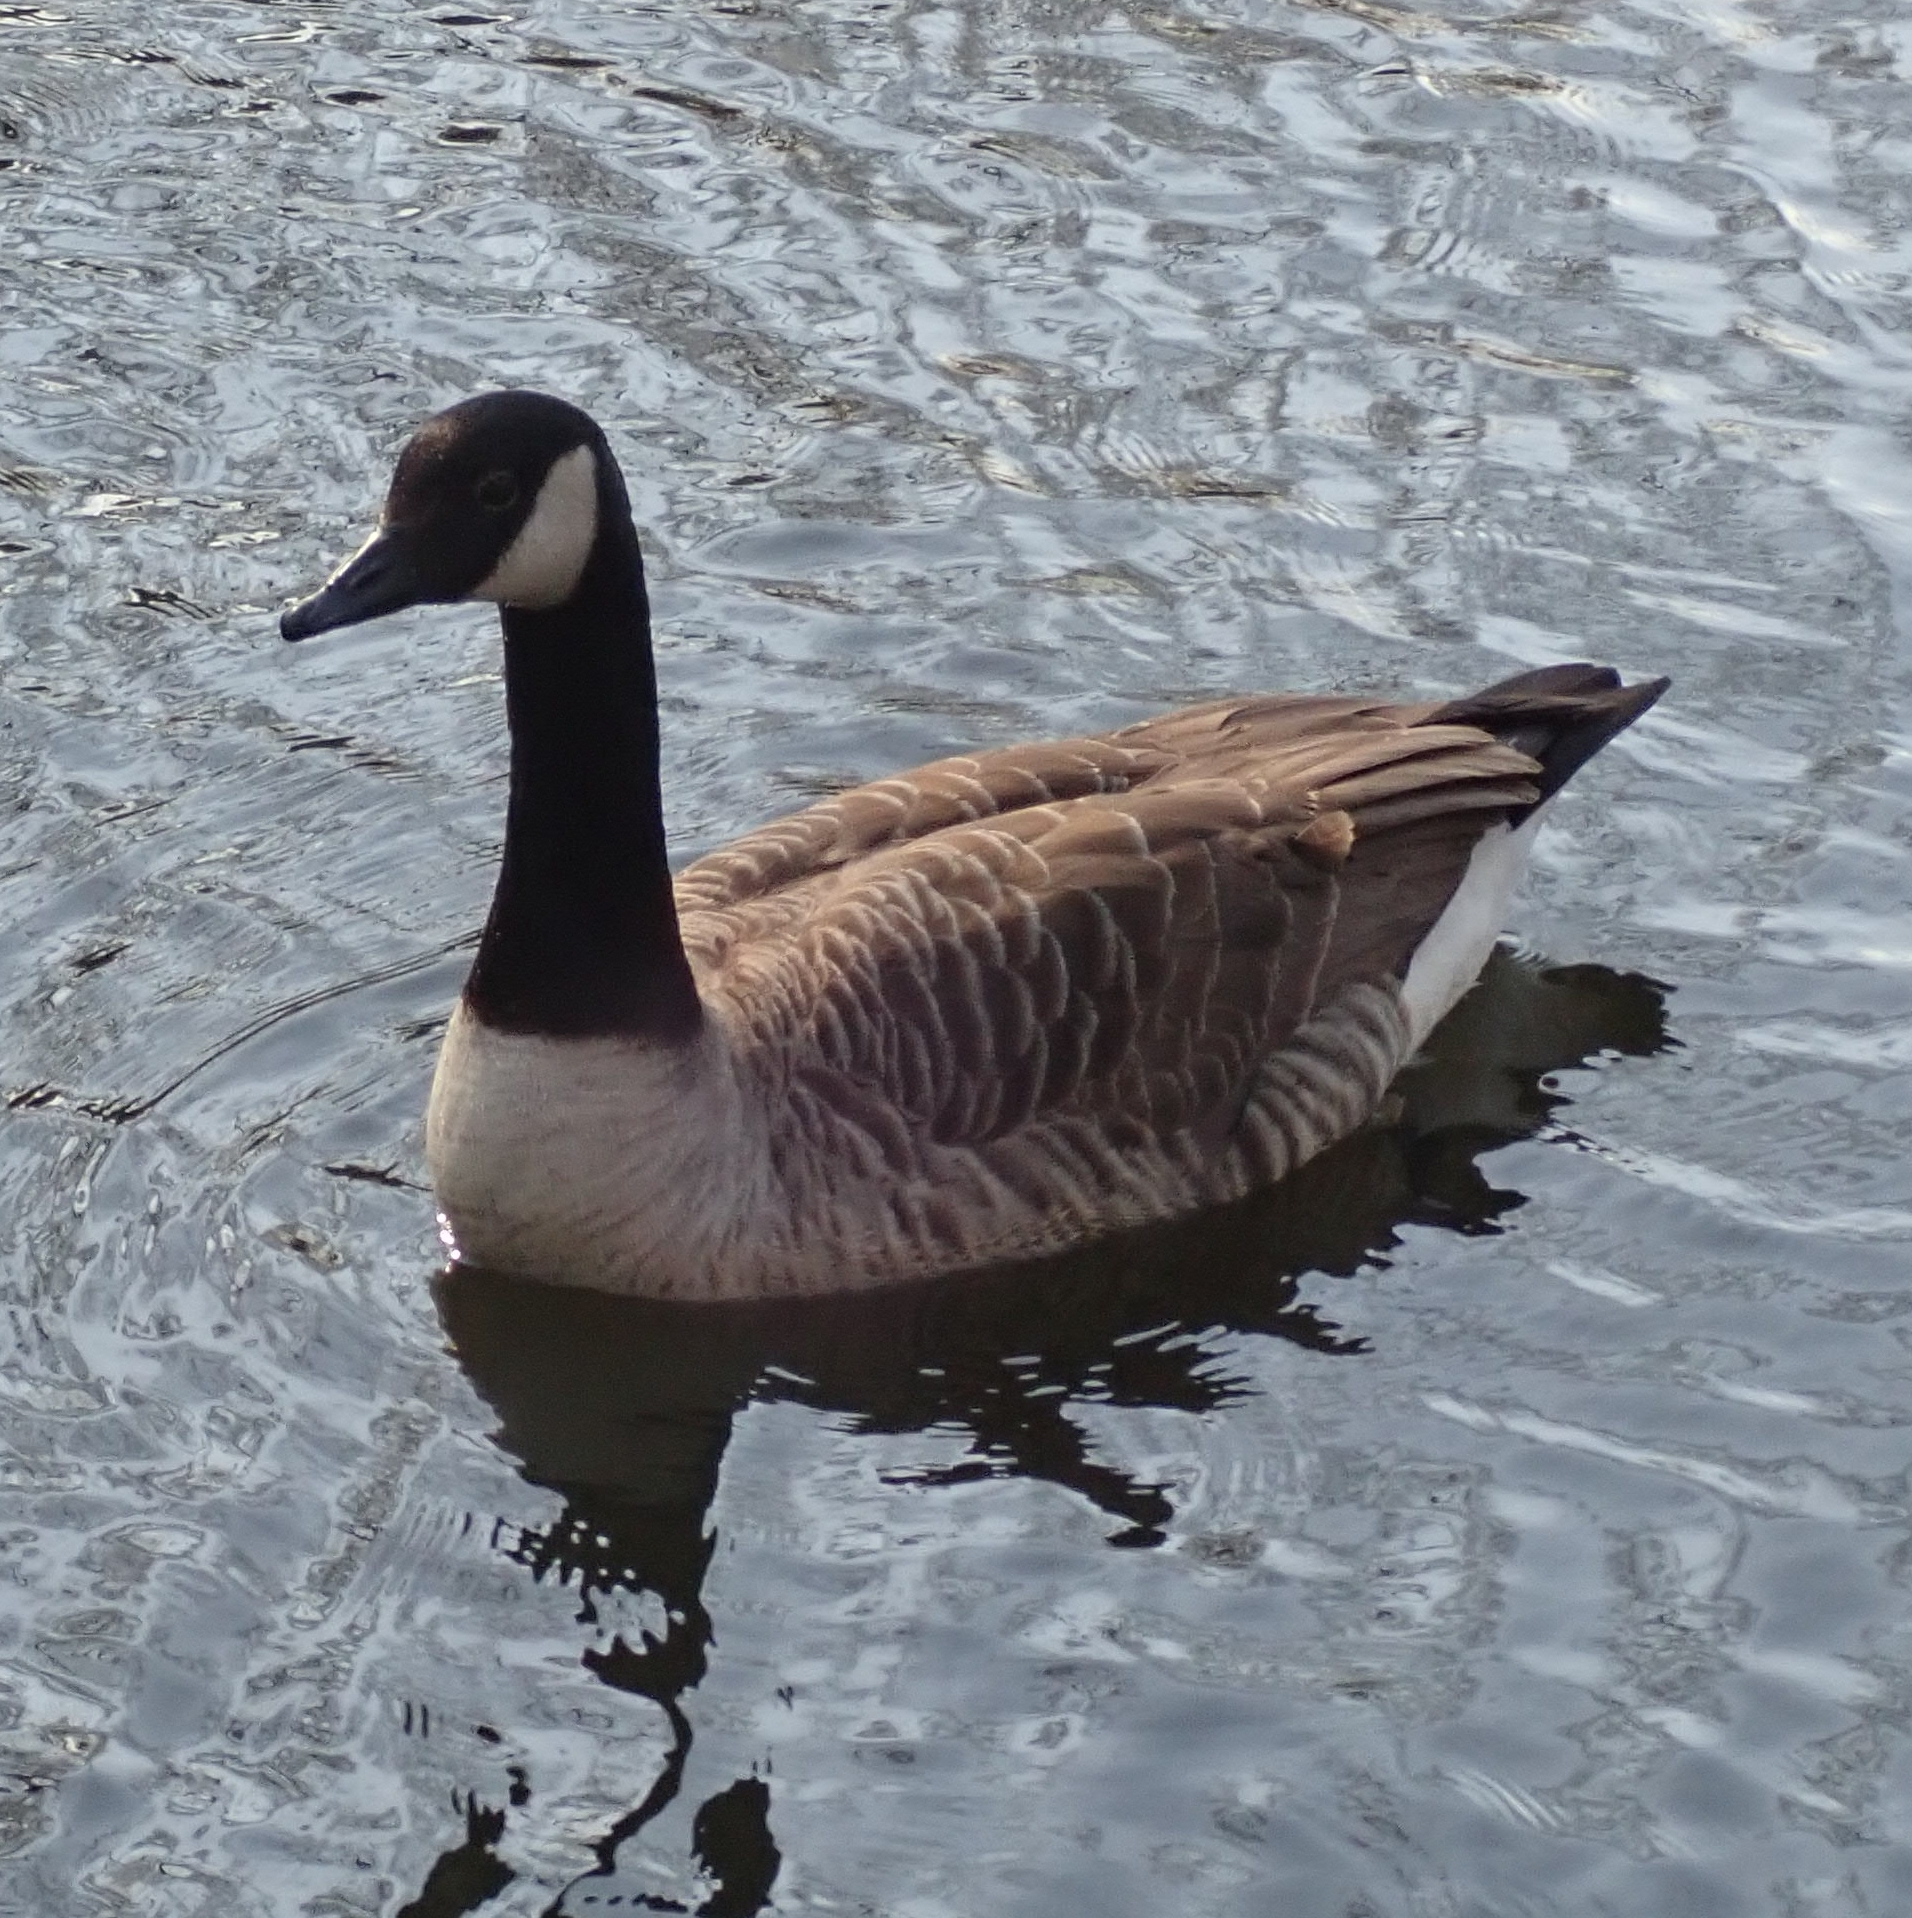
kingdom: Animalia
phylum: Chordata
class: Aves
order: Anseriformes
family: Anatidae
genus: Branta
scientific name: Branta canadensis
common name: Canada goose
